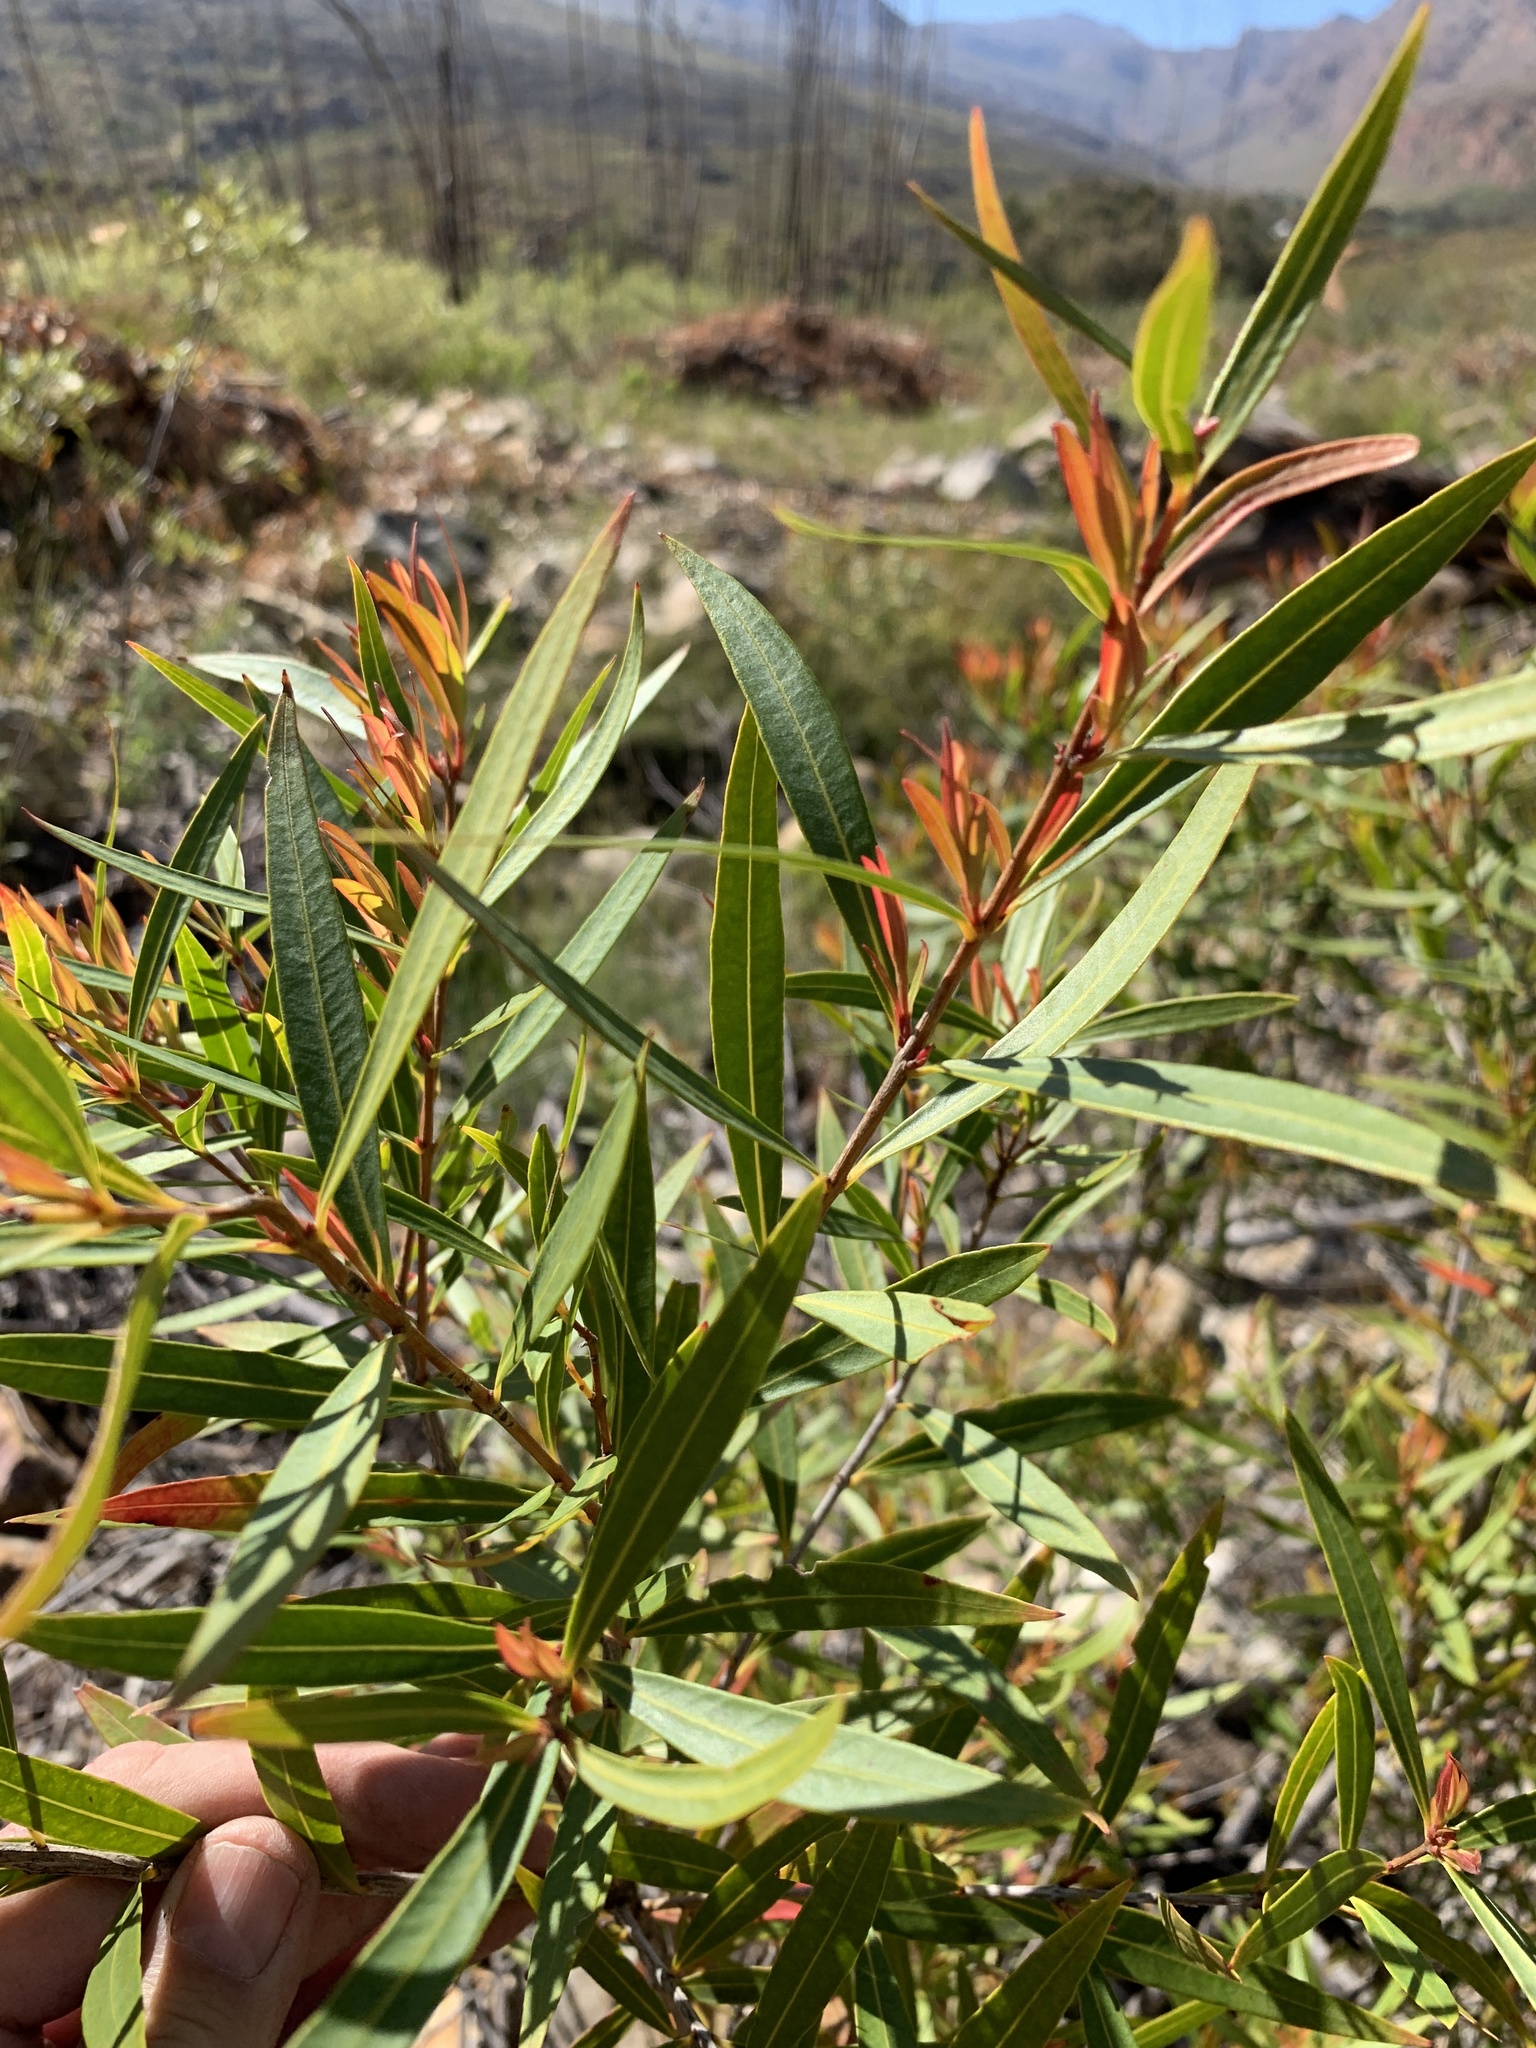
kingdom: Plantae
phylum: Tracheophyta
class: Magnoliopsida
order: Myrtales
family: Myrtaceae
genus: Callistemon
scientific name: Callistemon lanceolatus
